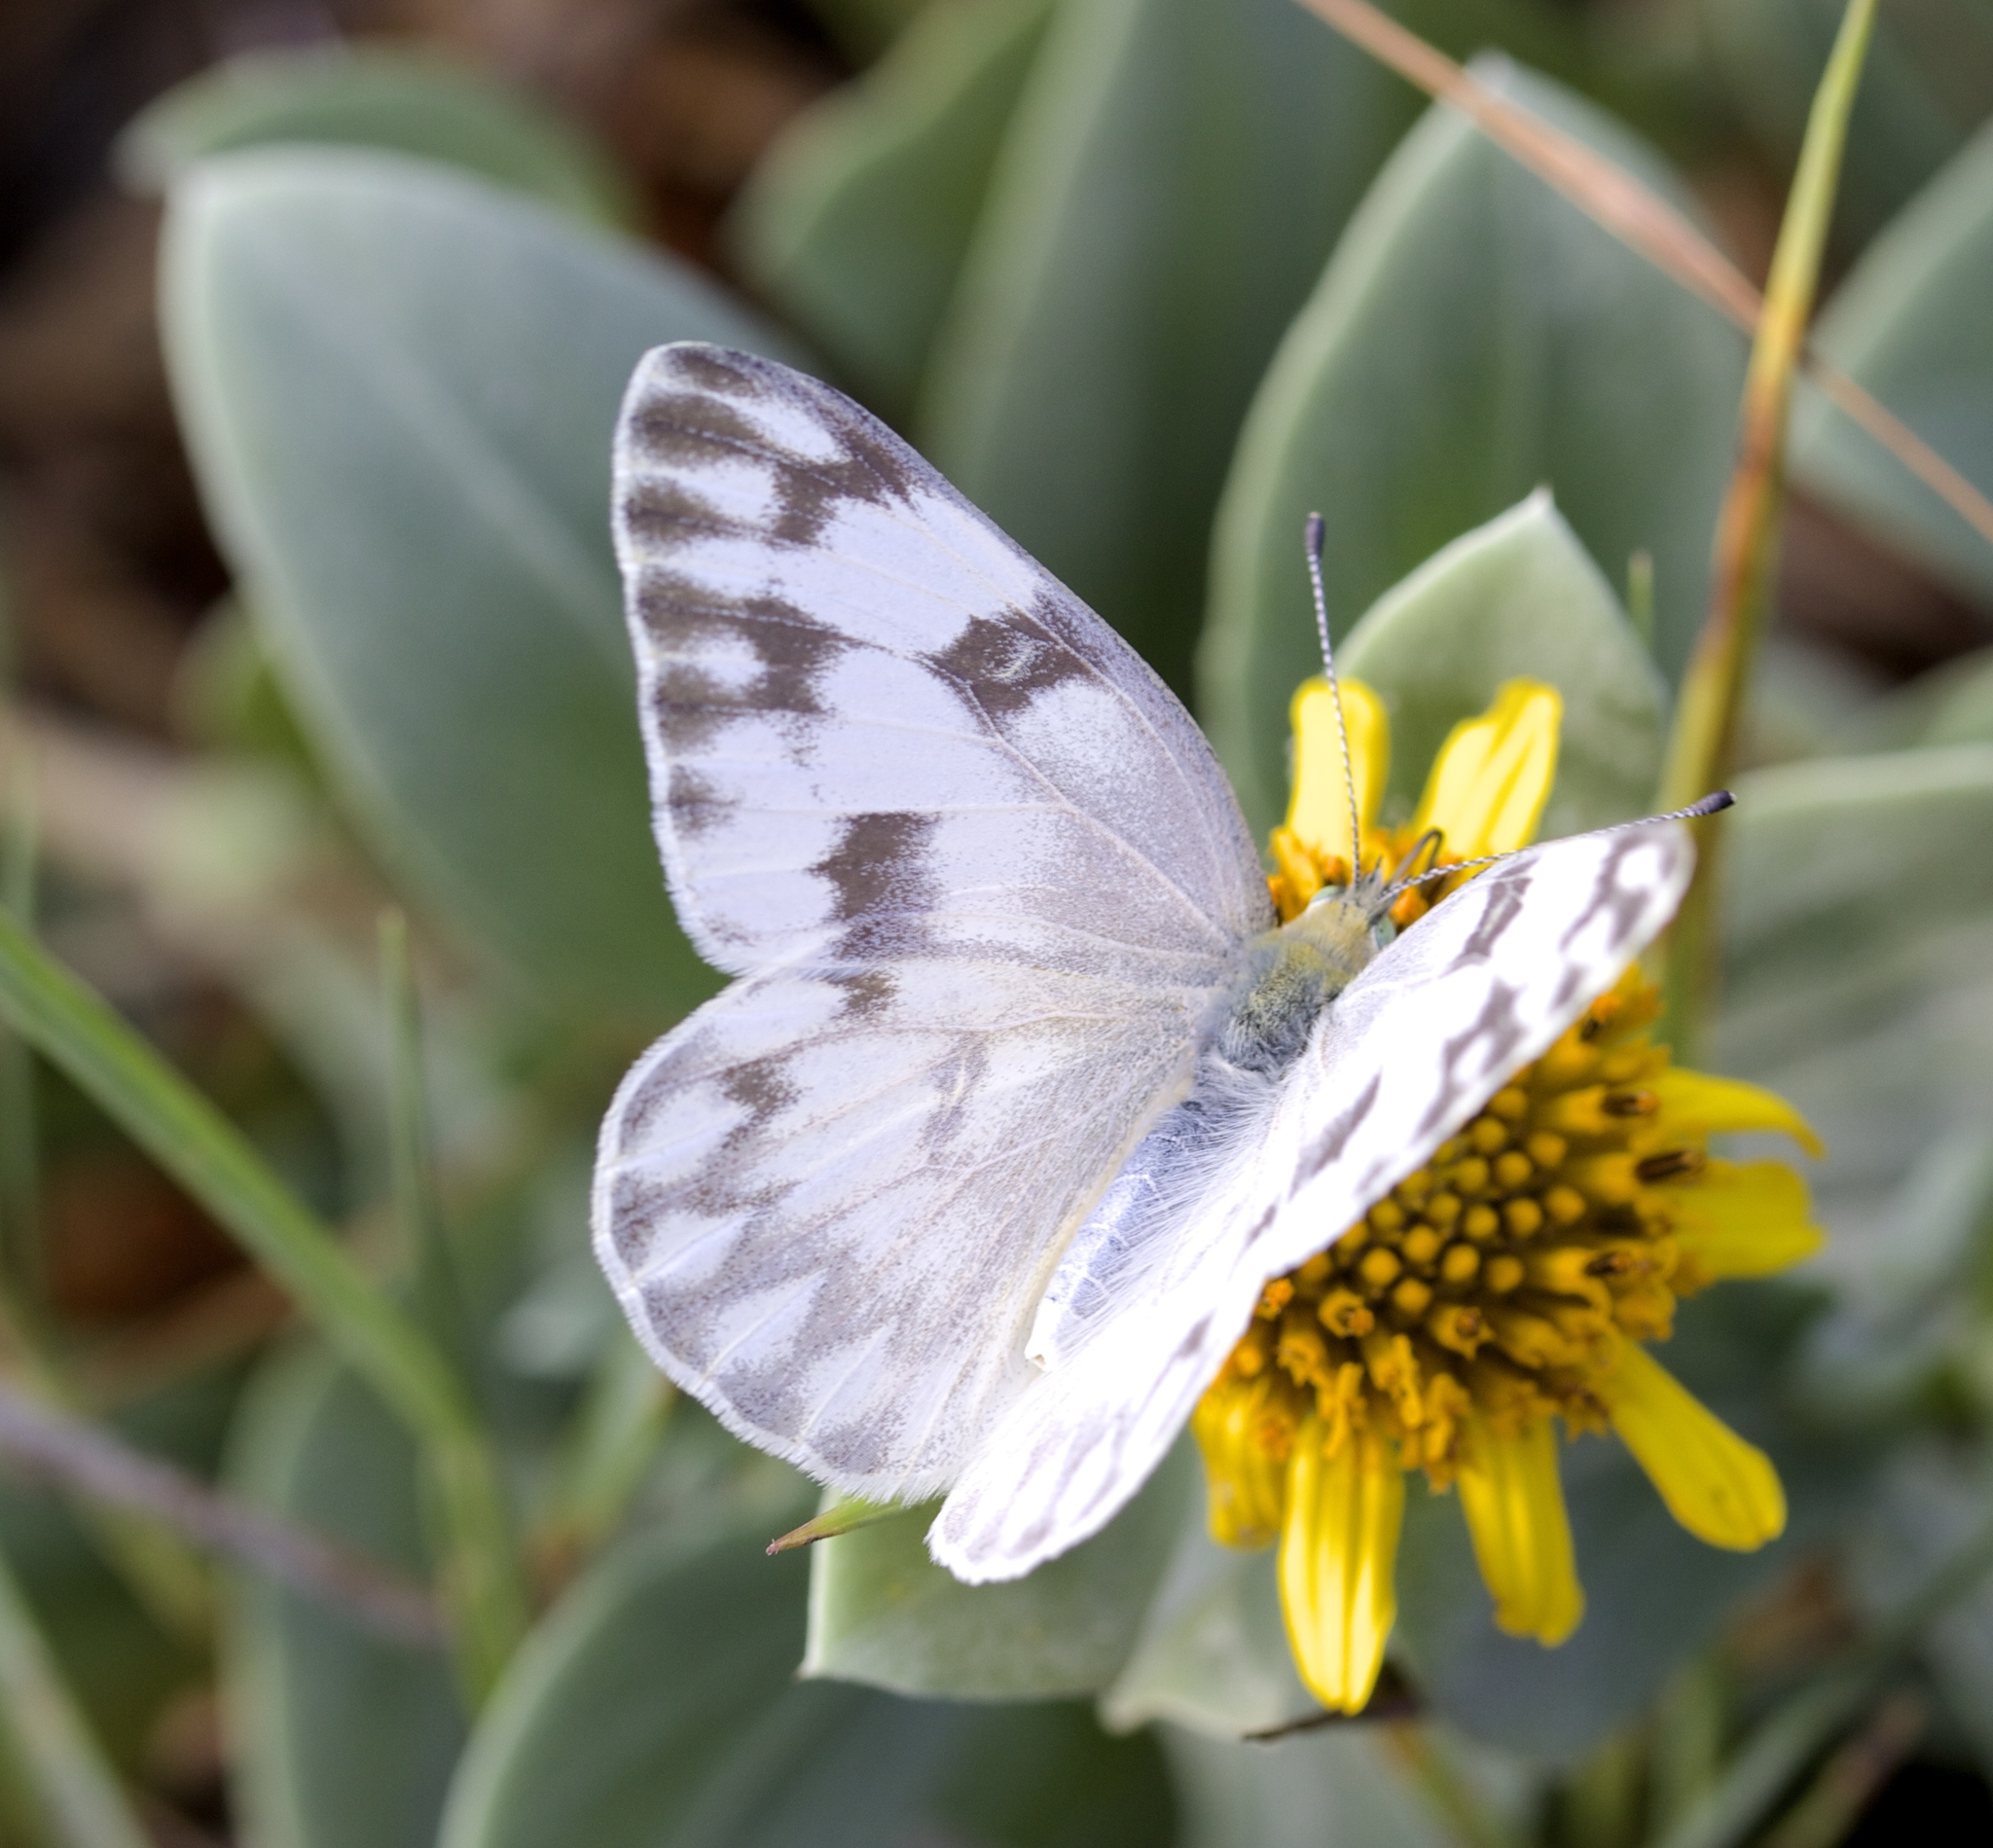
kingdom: Animalia
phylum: Arthropoda
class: Insecta
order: Lepidoptera
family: Pieridae
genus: Pontia
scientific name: Pontia protodice
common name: Checkered white
